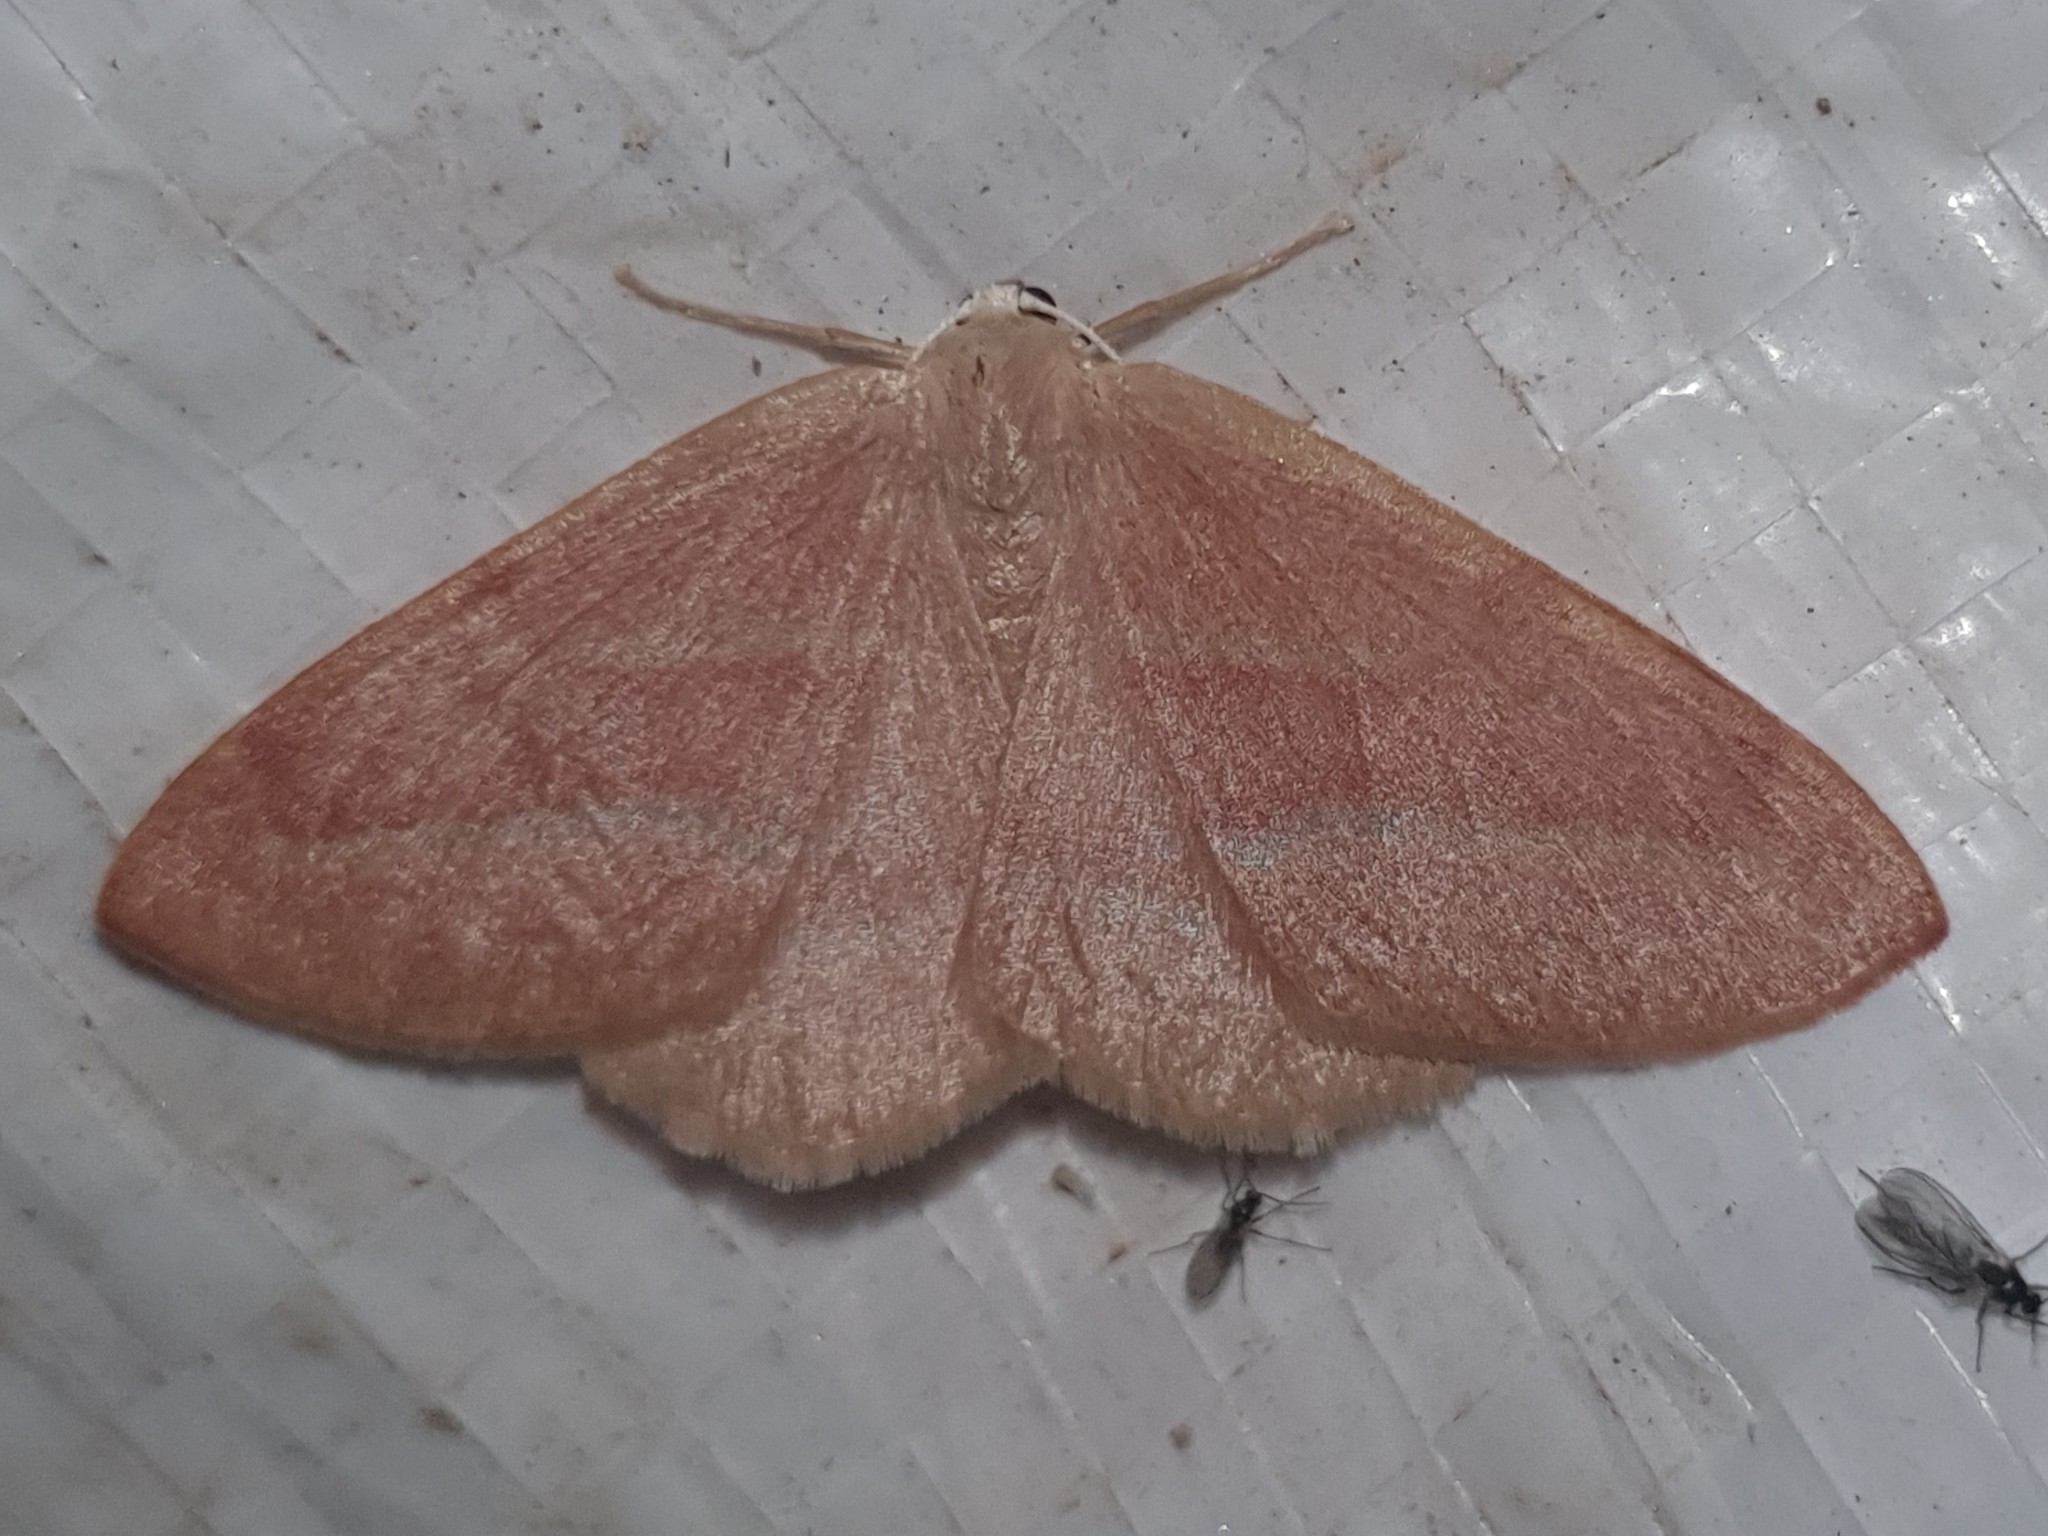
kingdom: Animalia
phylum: Arthropoda
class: Insecta
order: Lepidoptera
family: Geometridae
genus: Hylaea
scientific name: Hylaea fasciaria
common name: Barred red
